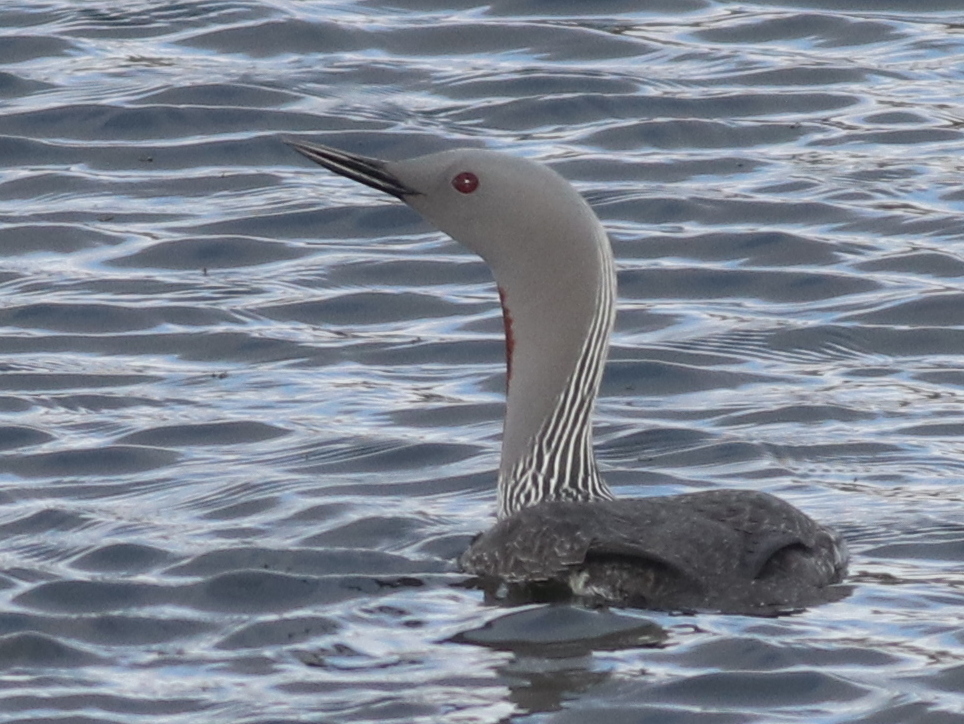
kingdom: Animalia
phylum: Chordata
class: Aves
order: Gaviiformes
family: Gaviidae
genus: Gavia
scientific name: Gavia stellata
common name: Red-throated loon
